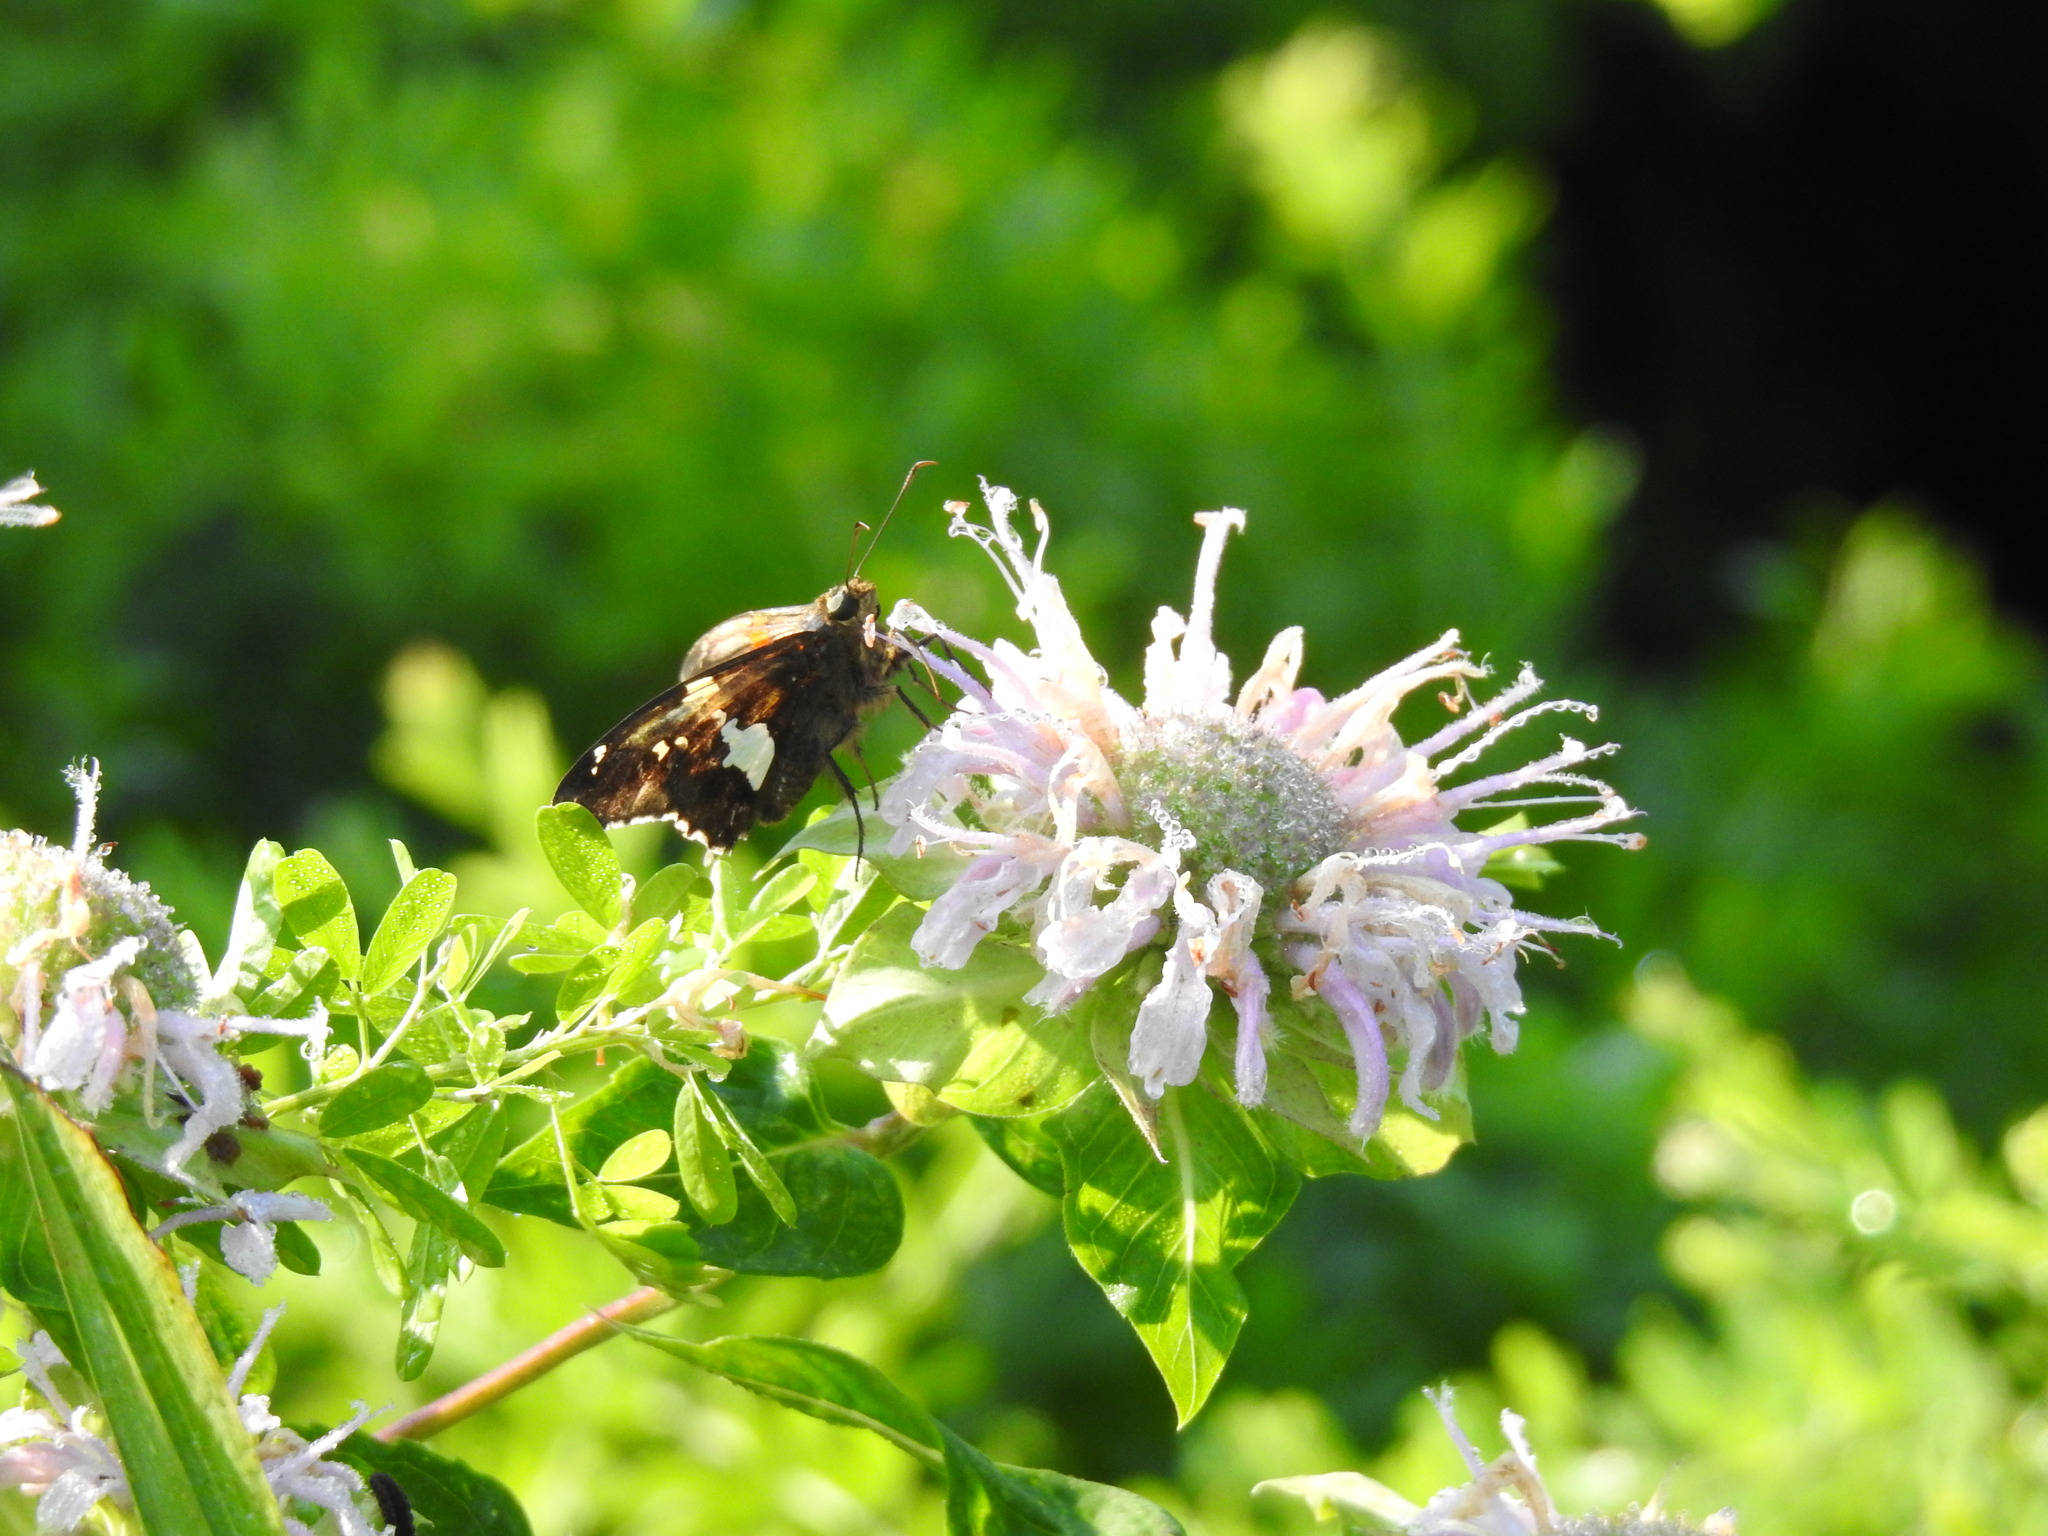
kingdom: Animalia
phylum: Arthropoda
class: Insecta
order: Lepidoptera
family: Hesperiidae
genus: Epargyreus
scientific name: Epargyreus clarus
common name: Silver-spotted skipper
